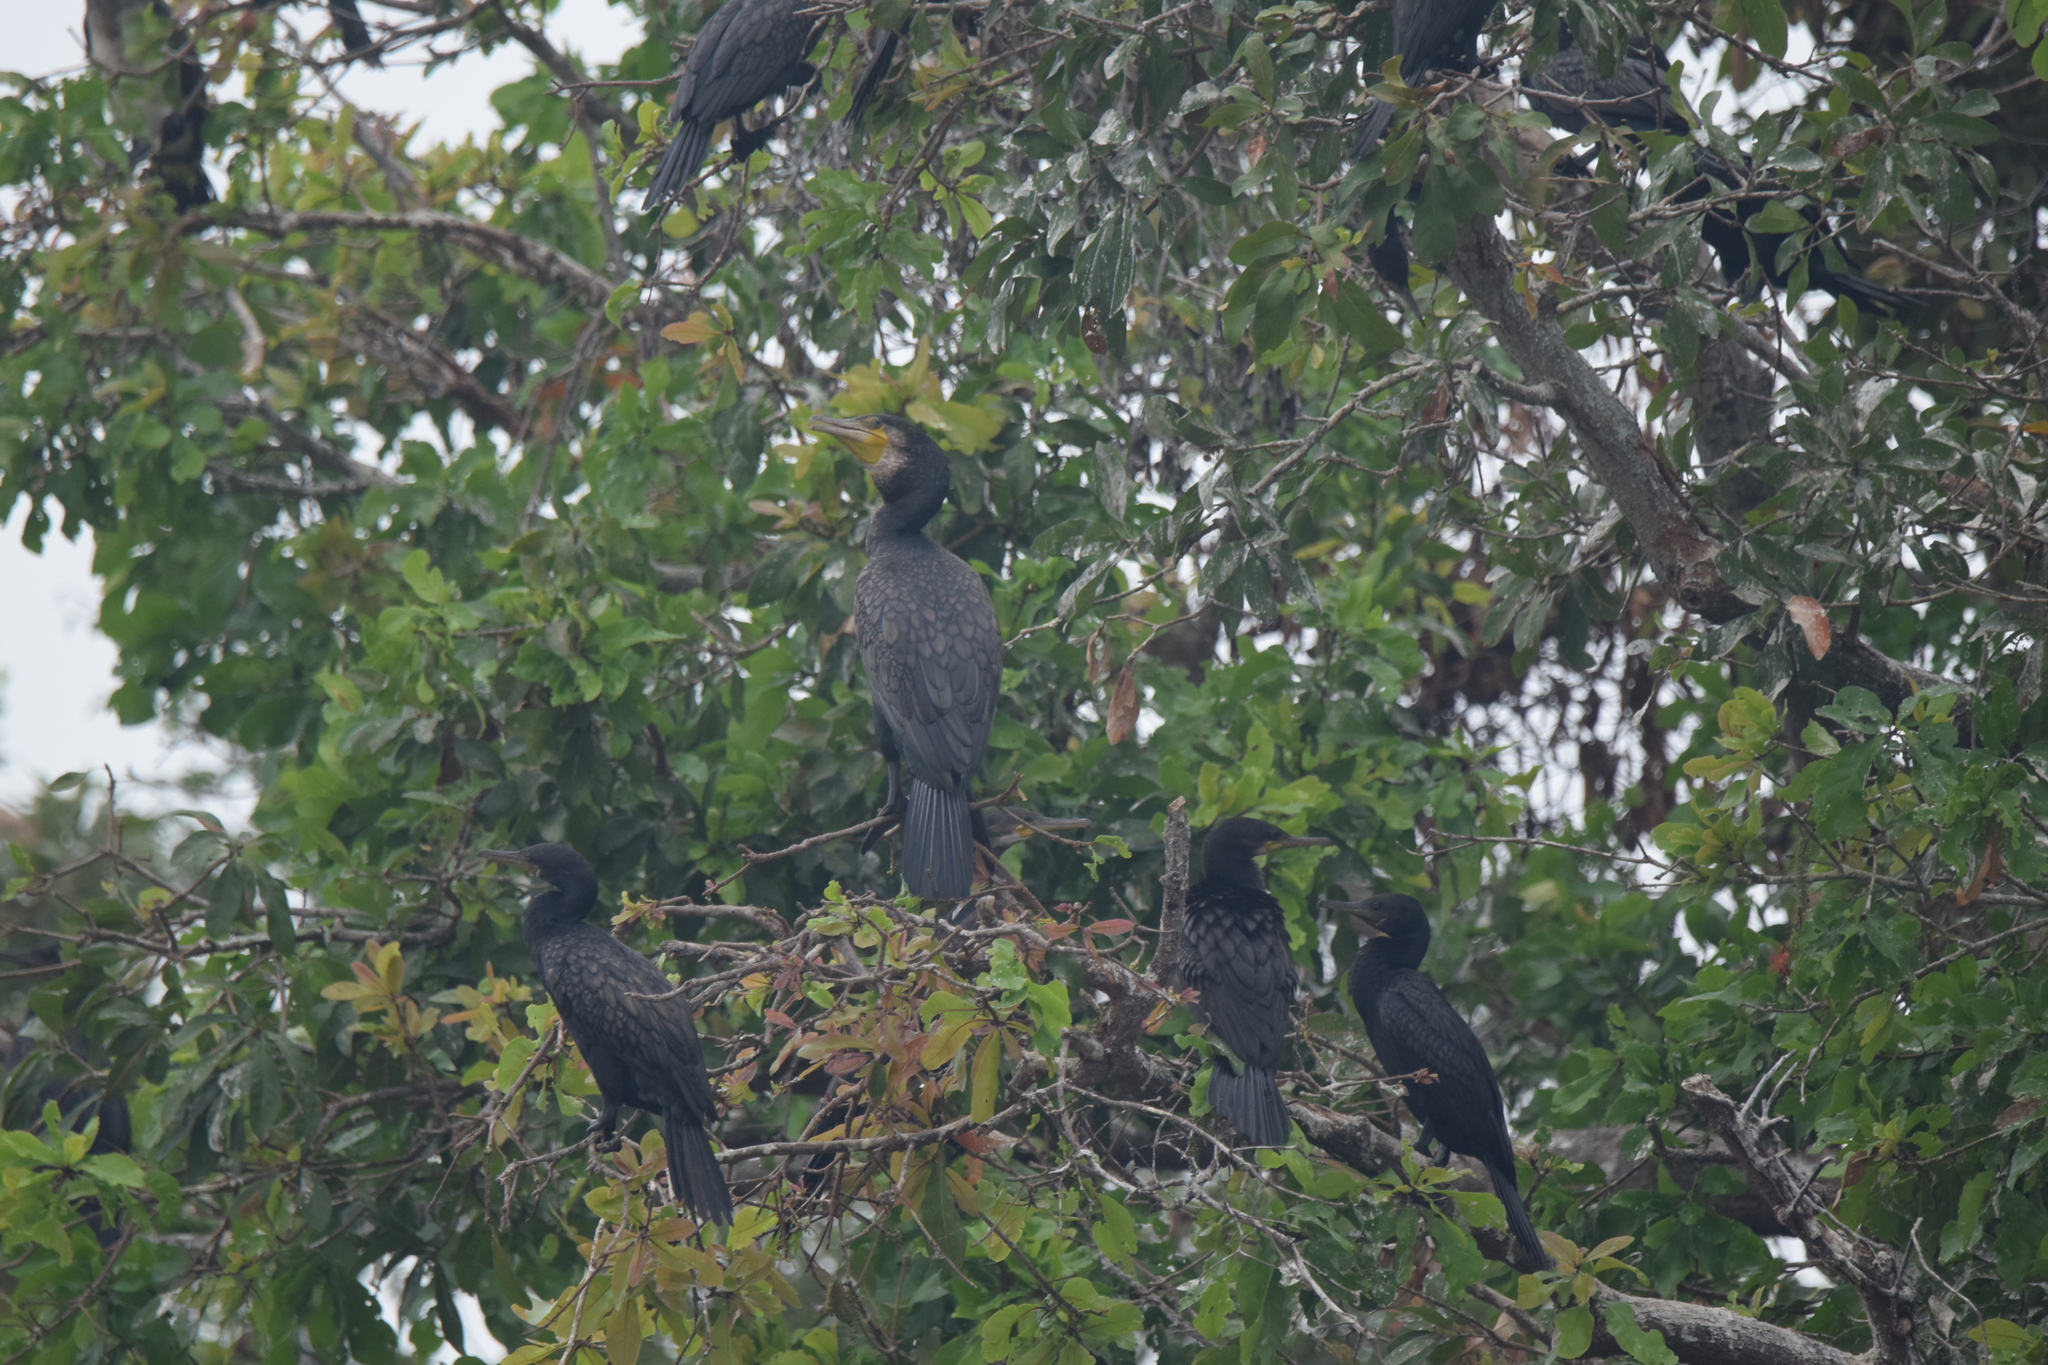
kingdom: Animalia
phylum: Chordata
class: Aves
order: Suliformes
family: Phalacrocoracidae
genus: Phalacrocorax
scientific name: Phalacrocorax fuscicollis
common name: Indian cormorant
